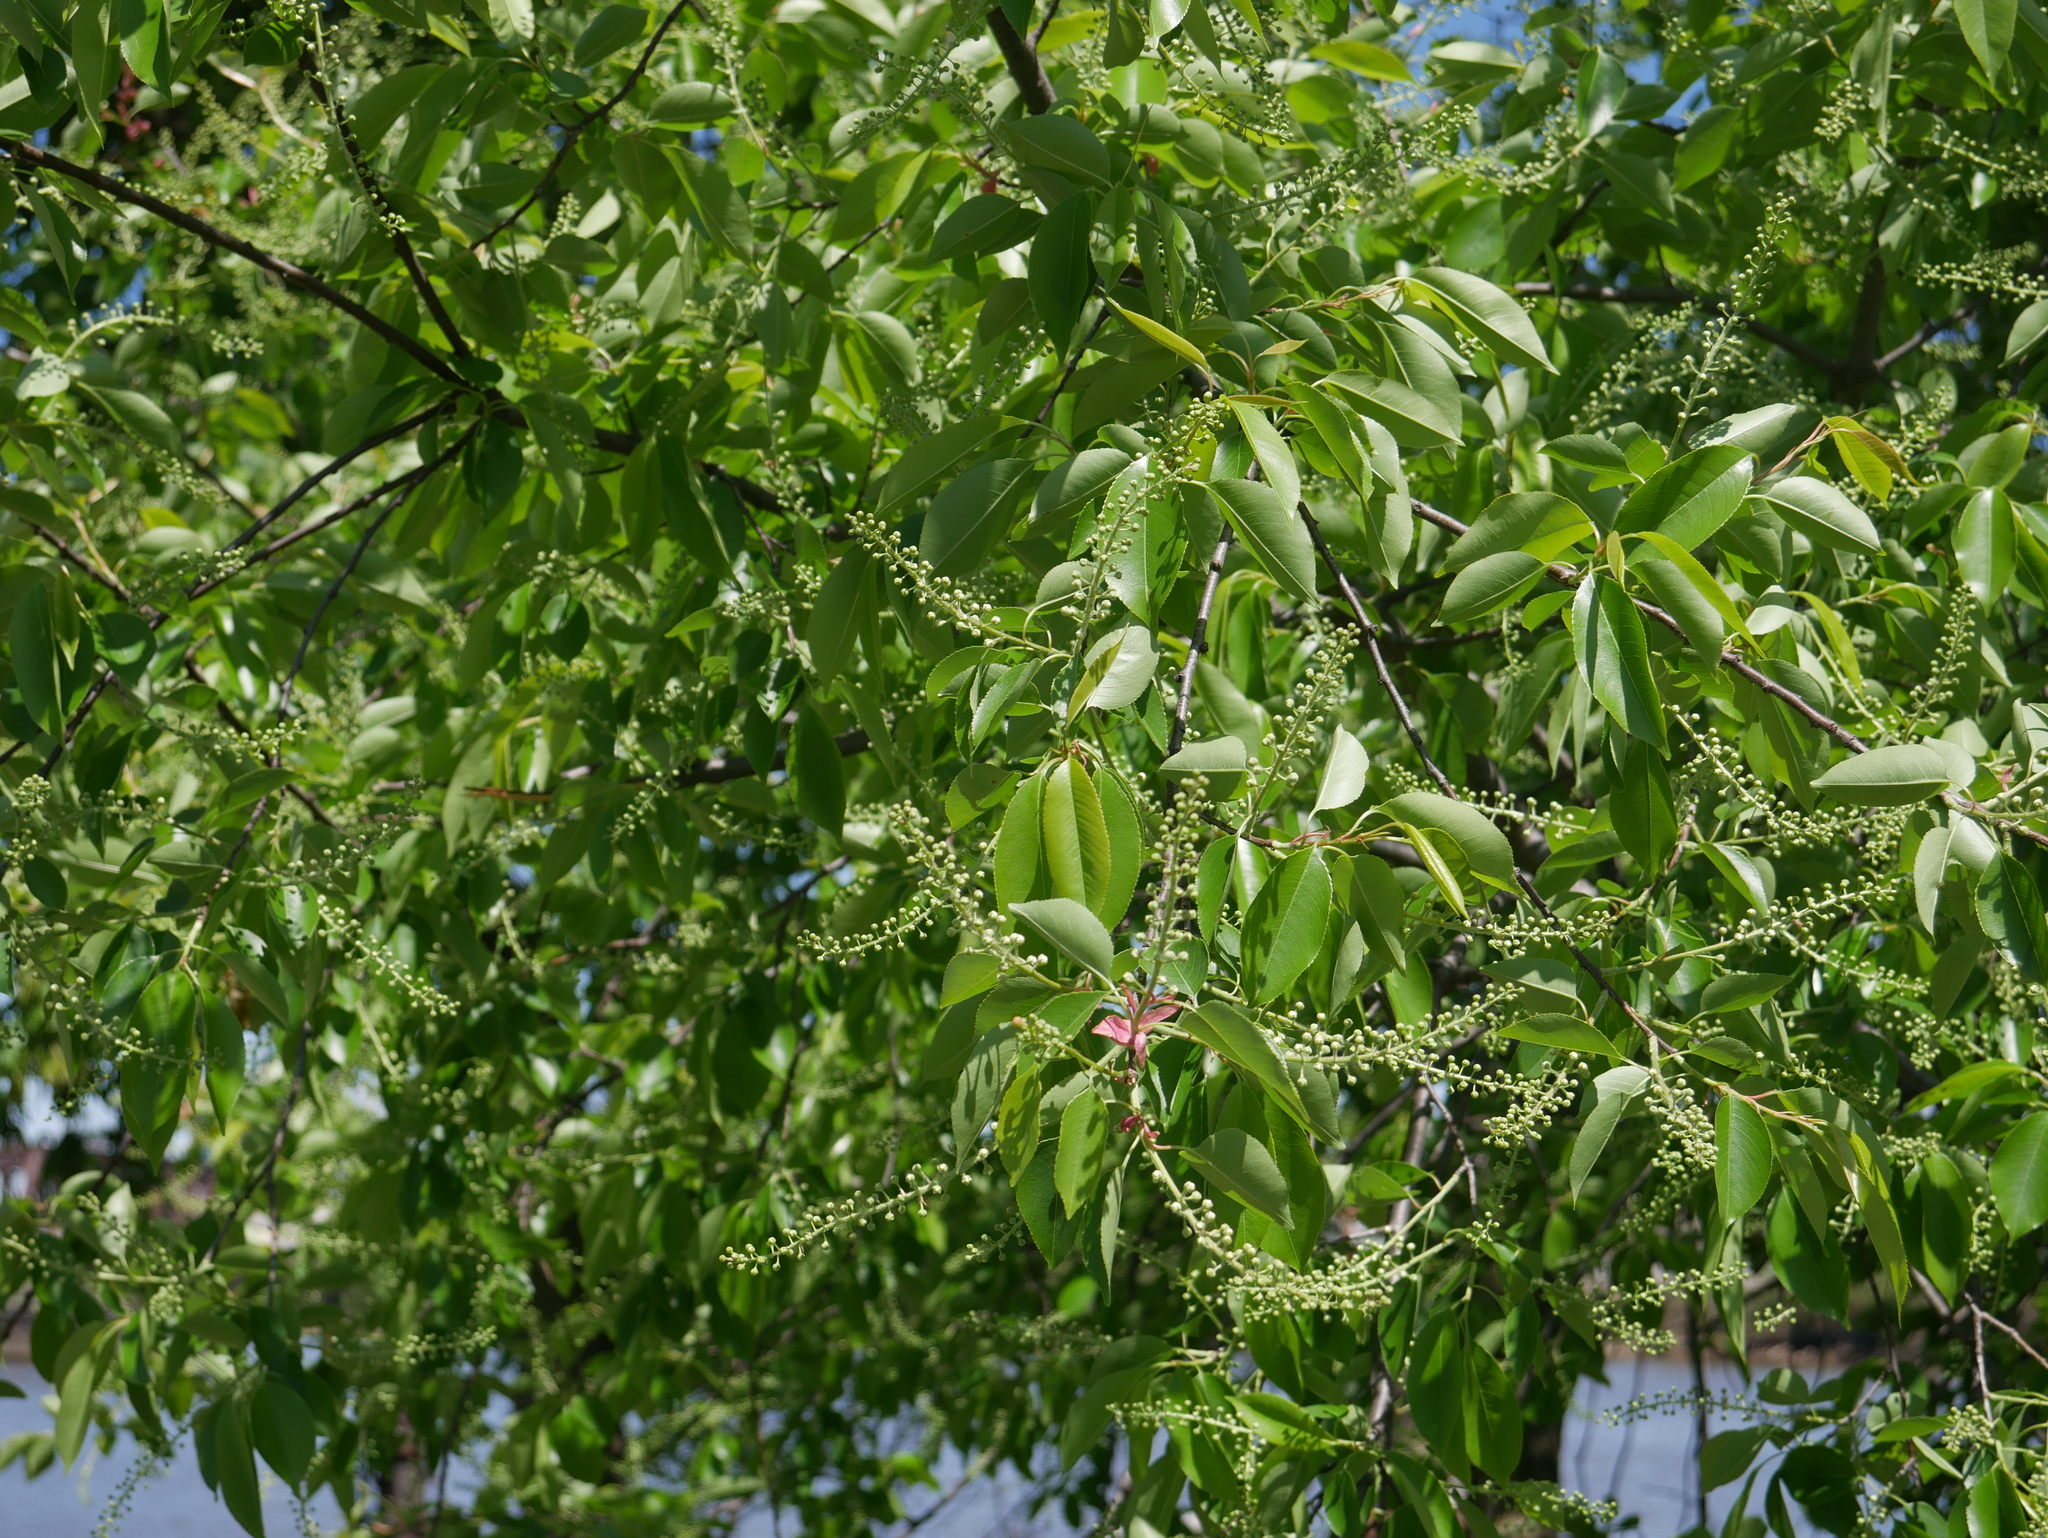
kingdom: Plantae
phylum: Tracheophyta
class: Magnoliopsida
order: Rosales
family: Rosaceae
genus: Prunus
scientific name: Prunus serotina
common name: Black cherry
